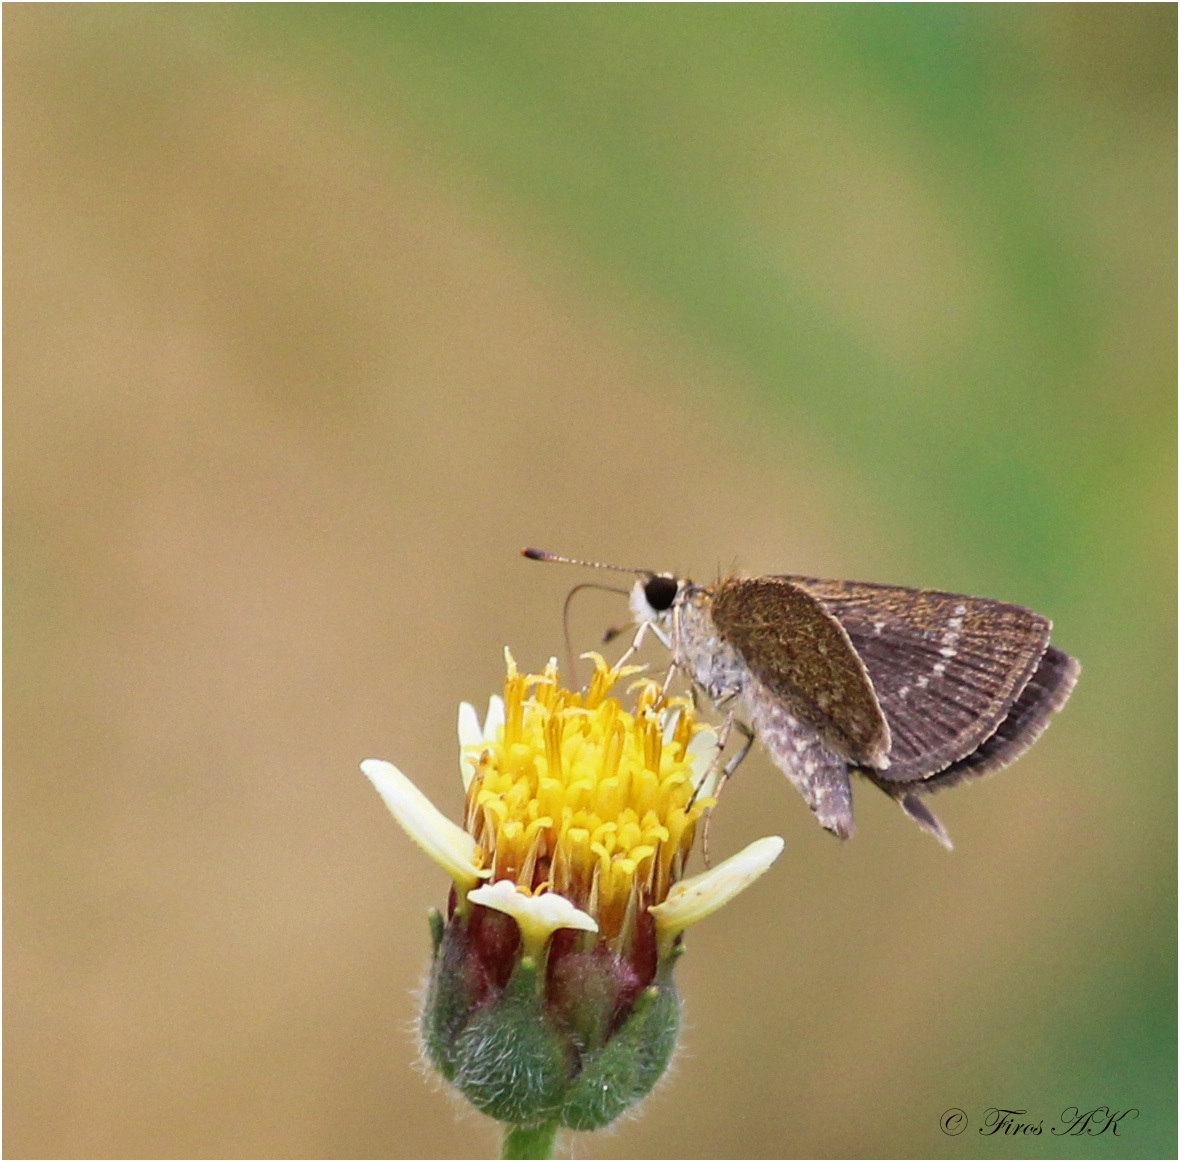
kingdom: Animalia
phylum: Arthropoda
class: Insecta
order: Lepidoptera
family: Hesperiidae
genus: Aeromachus
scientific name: Aeromachus pygmaeus
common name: Pygmy scrub hopper
